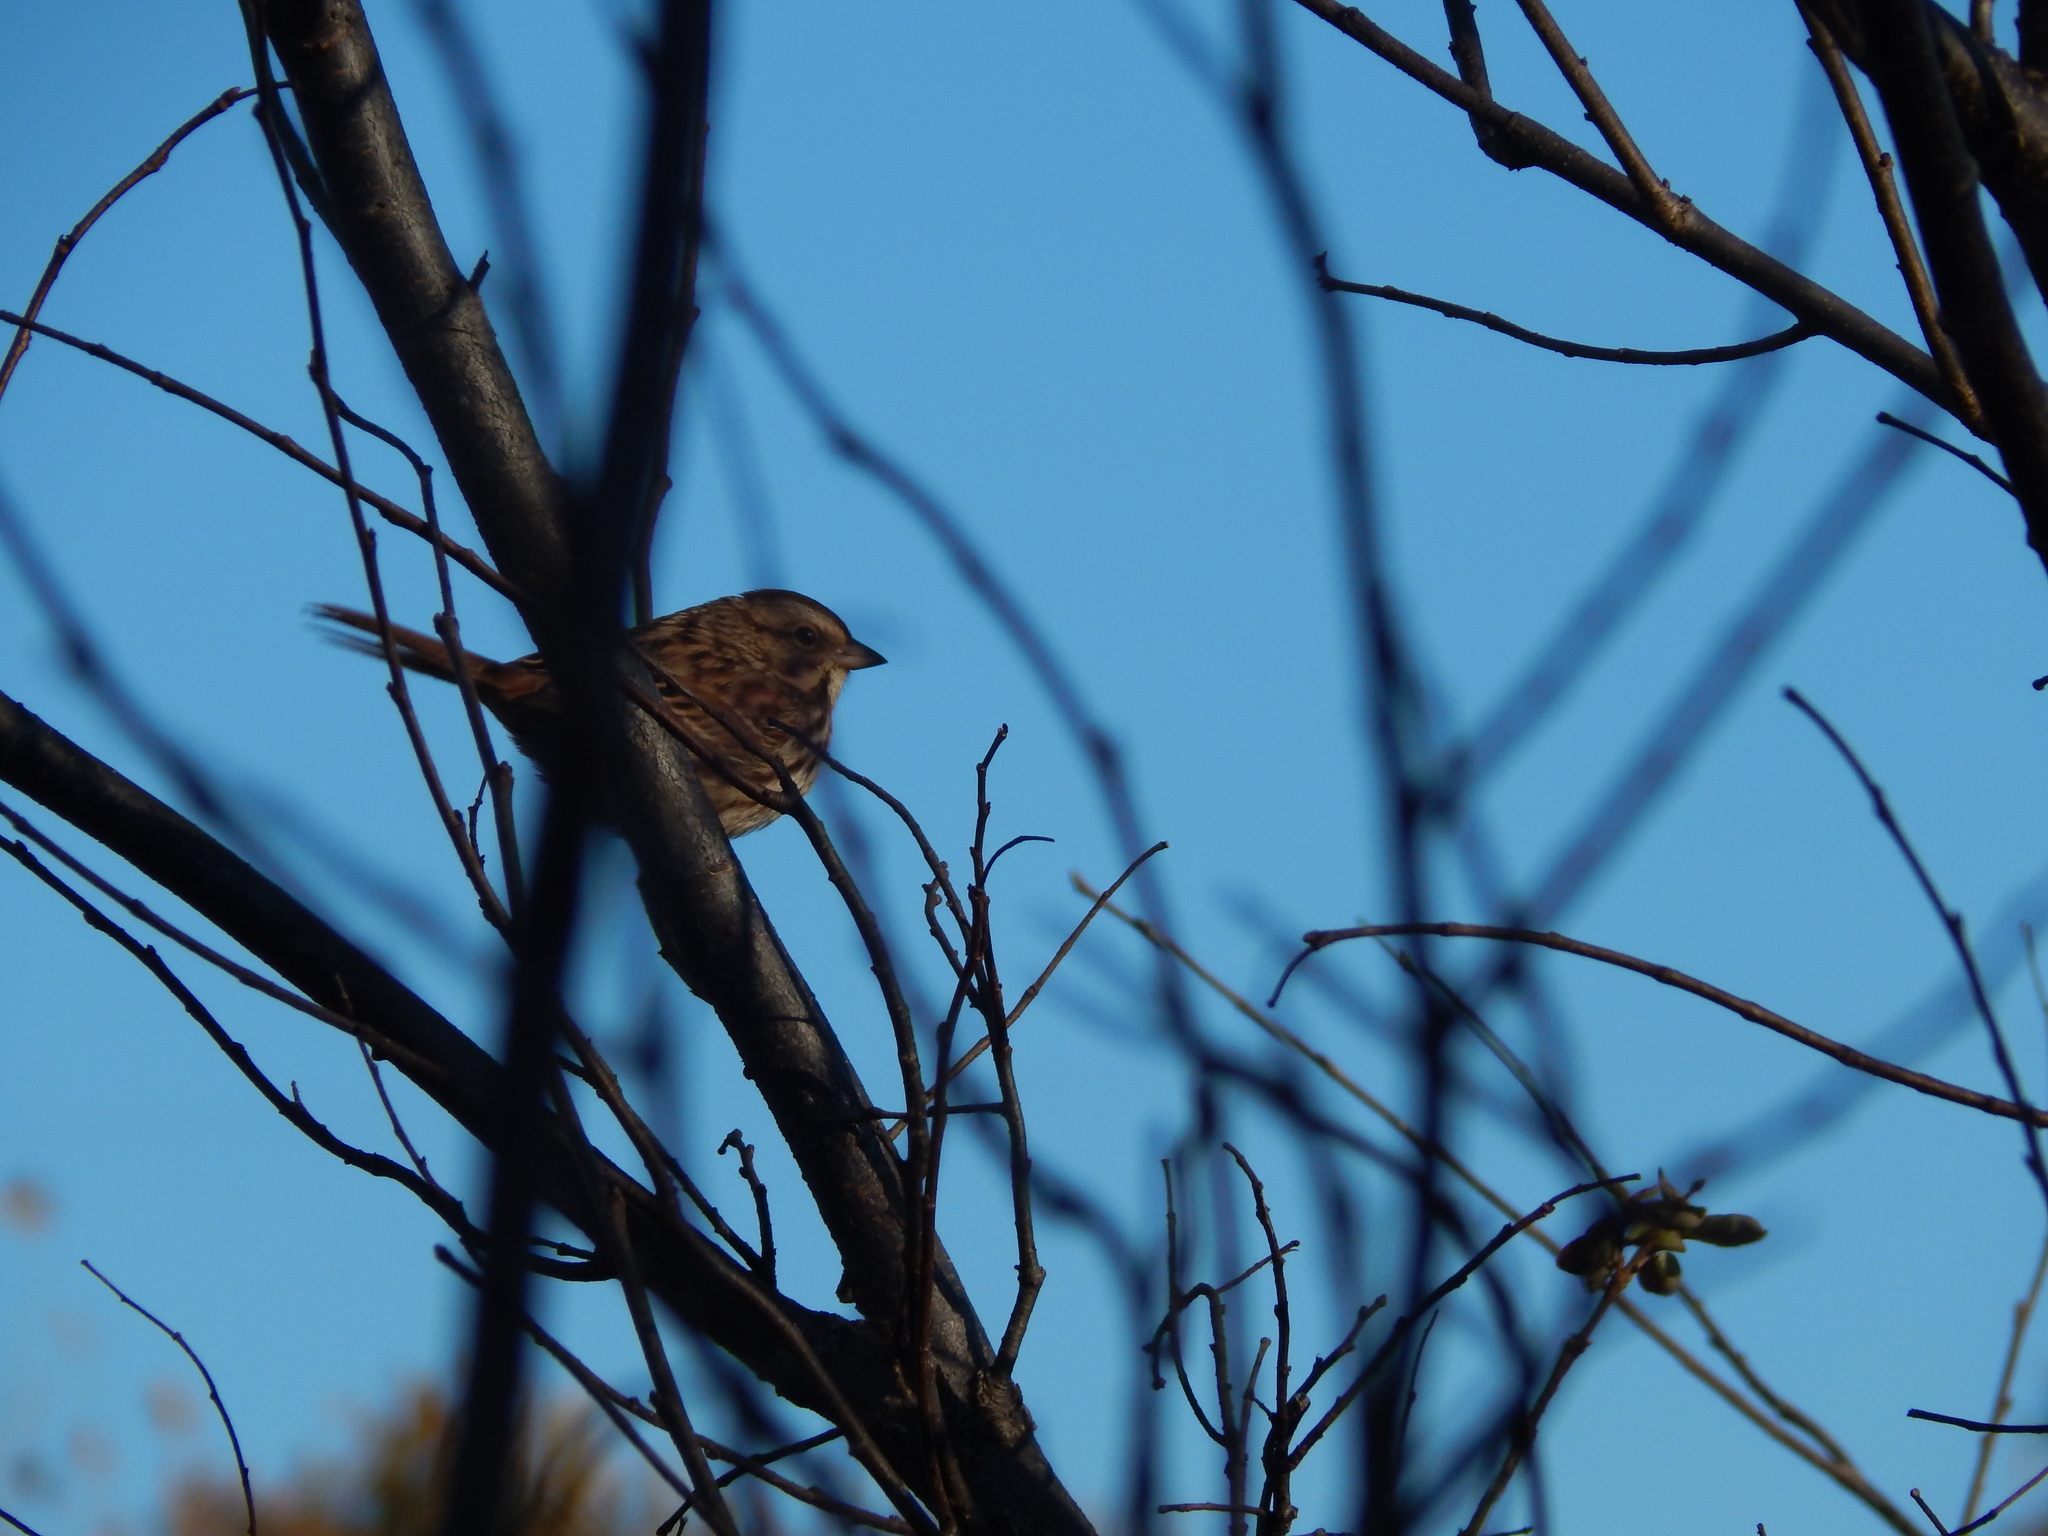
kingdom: Animalia
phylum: Chordata
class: Aves
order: Passeriformes
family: Passerellidae
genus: Melospiza
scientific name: Melospiza melodia
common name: Song sparrow
